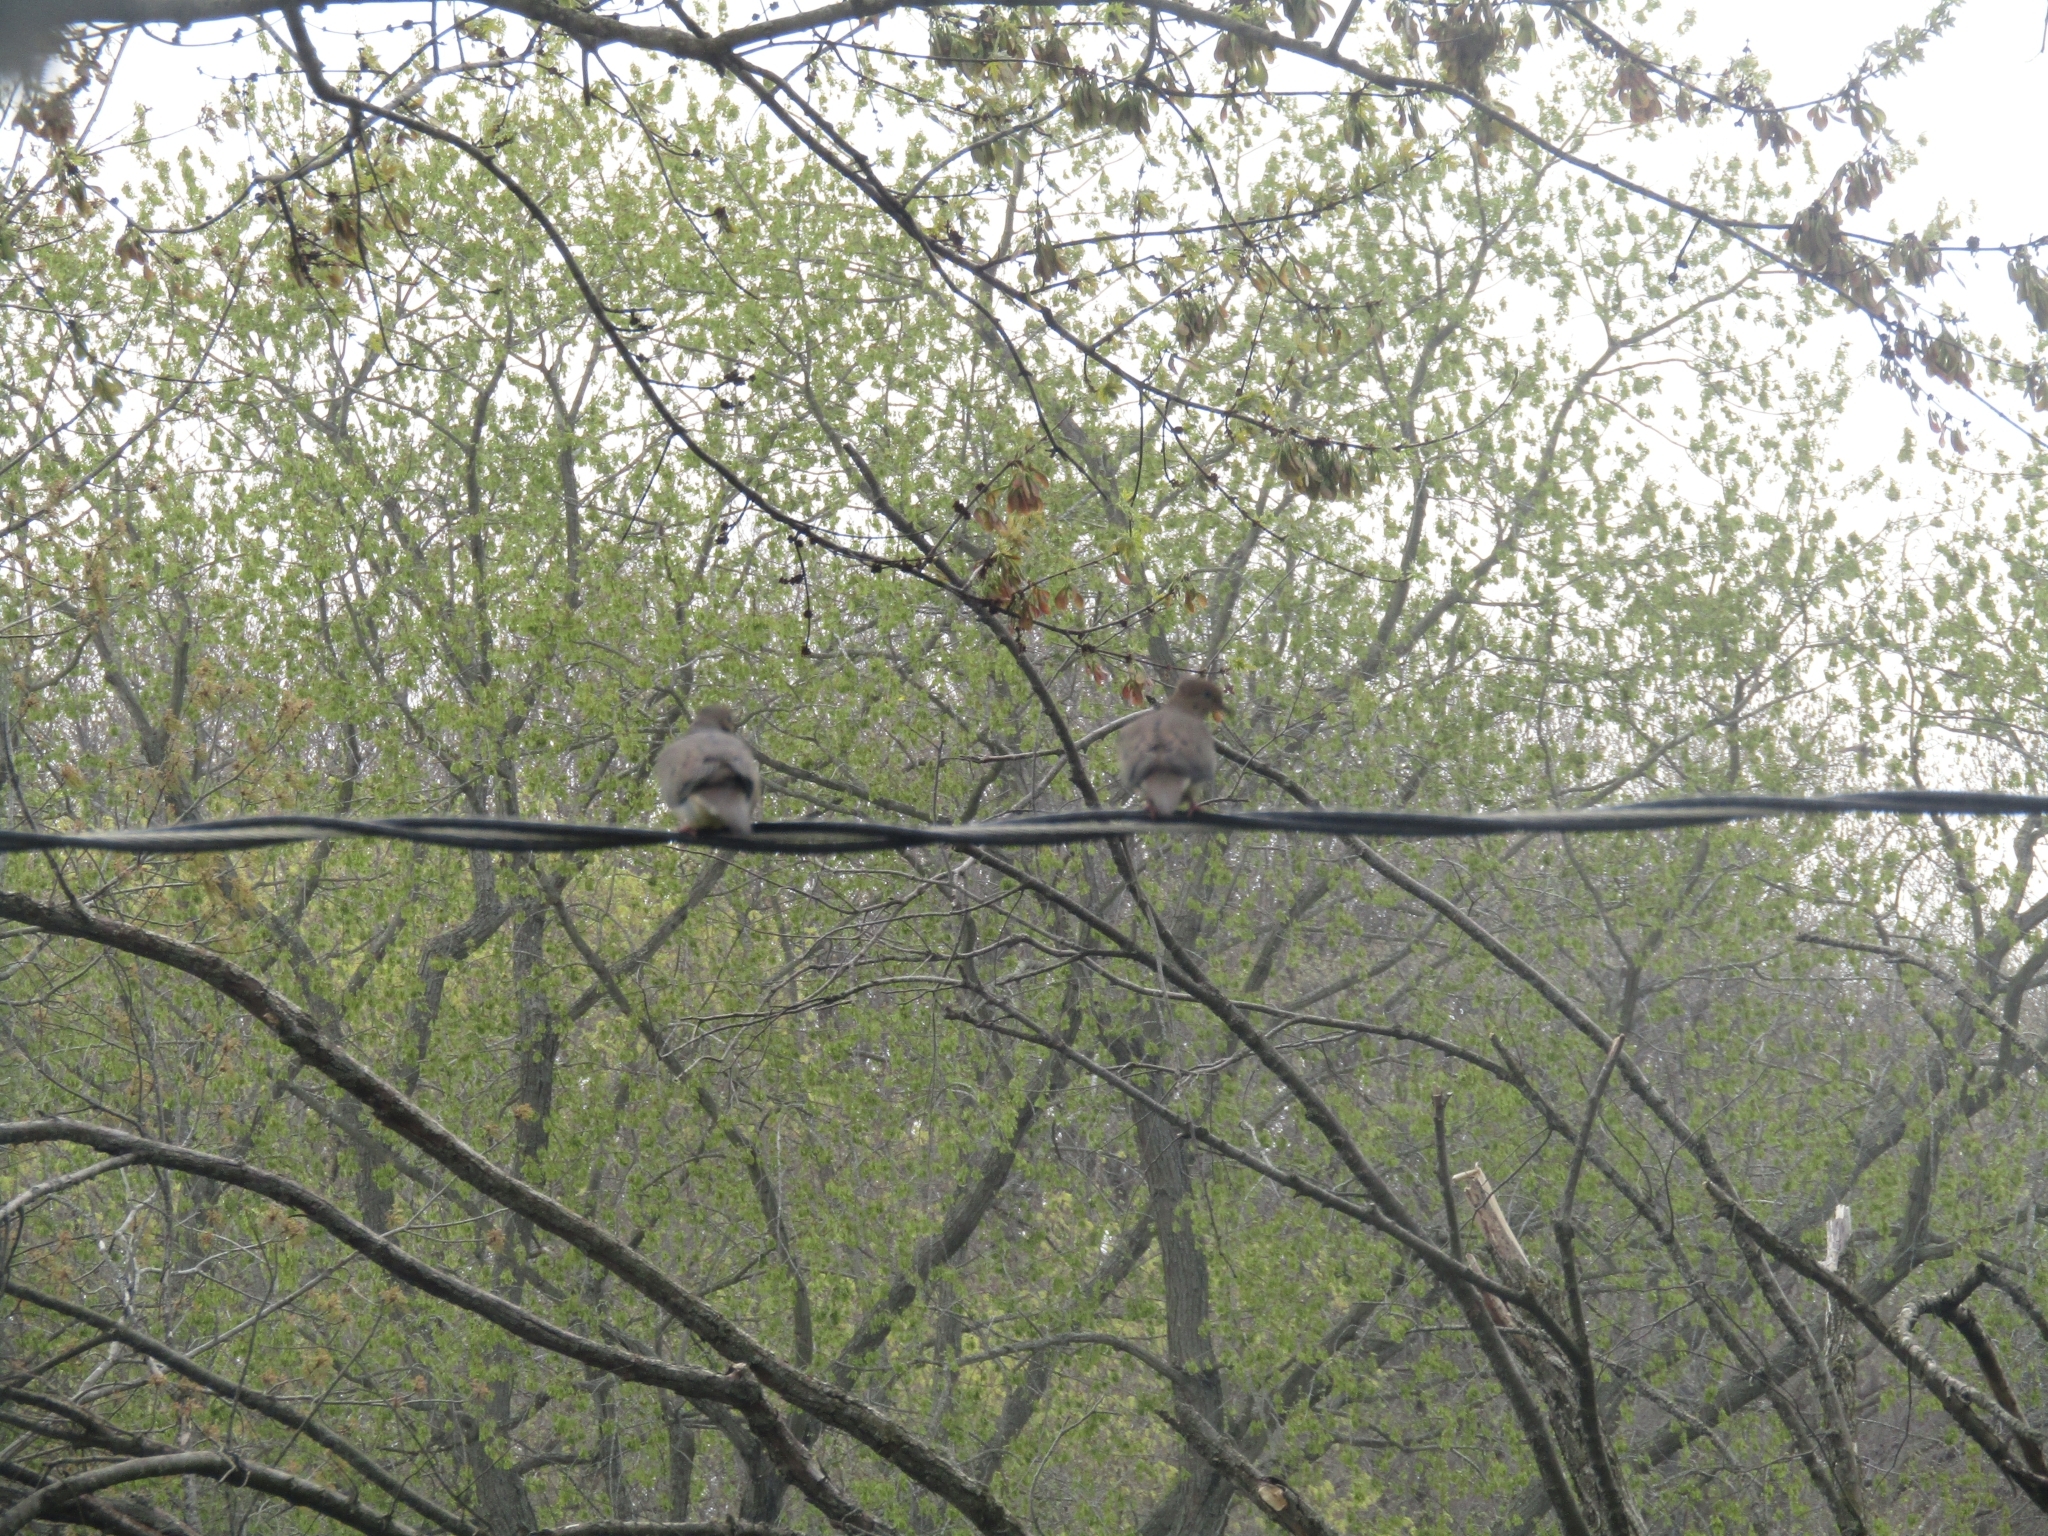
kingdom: Animalia
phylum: Chordata
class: Aves
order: Columbiformes
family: Columbidae
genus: Zenaida
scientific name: Zenaida macroura
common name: Mourning dove
